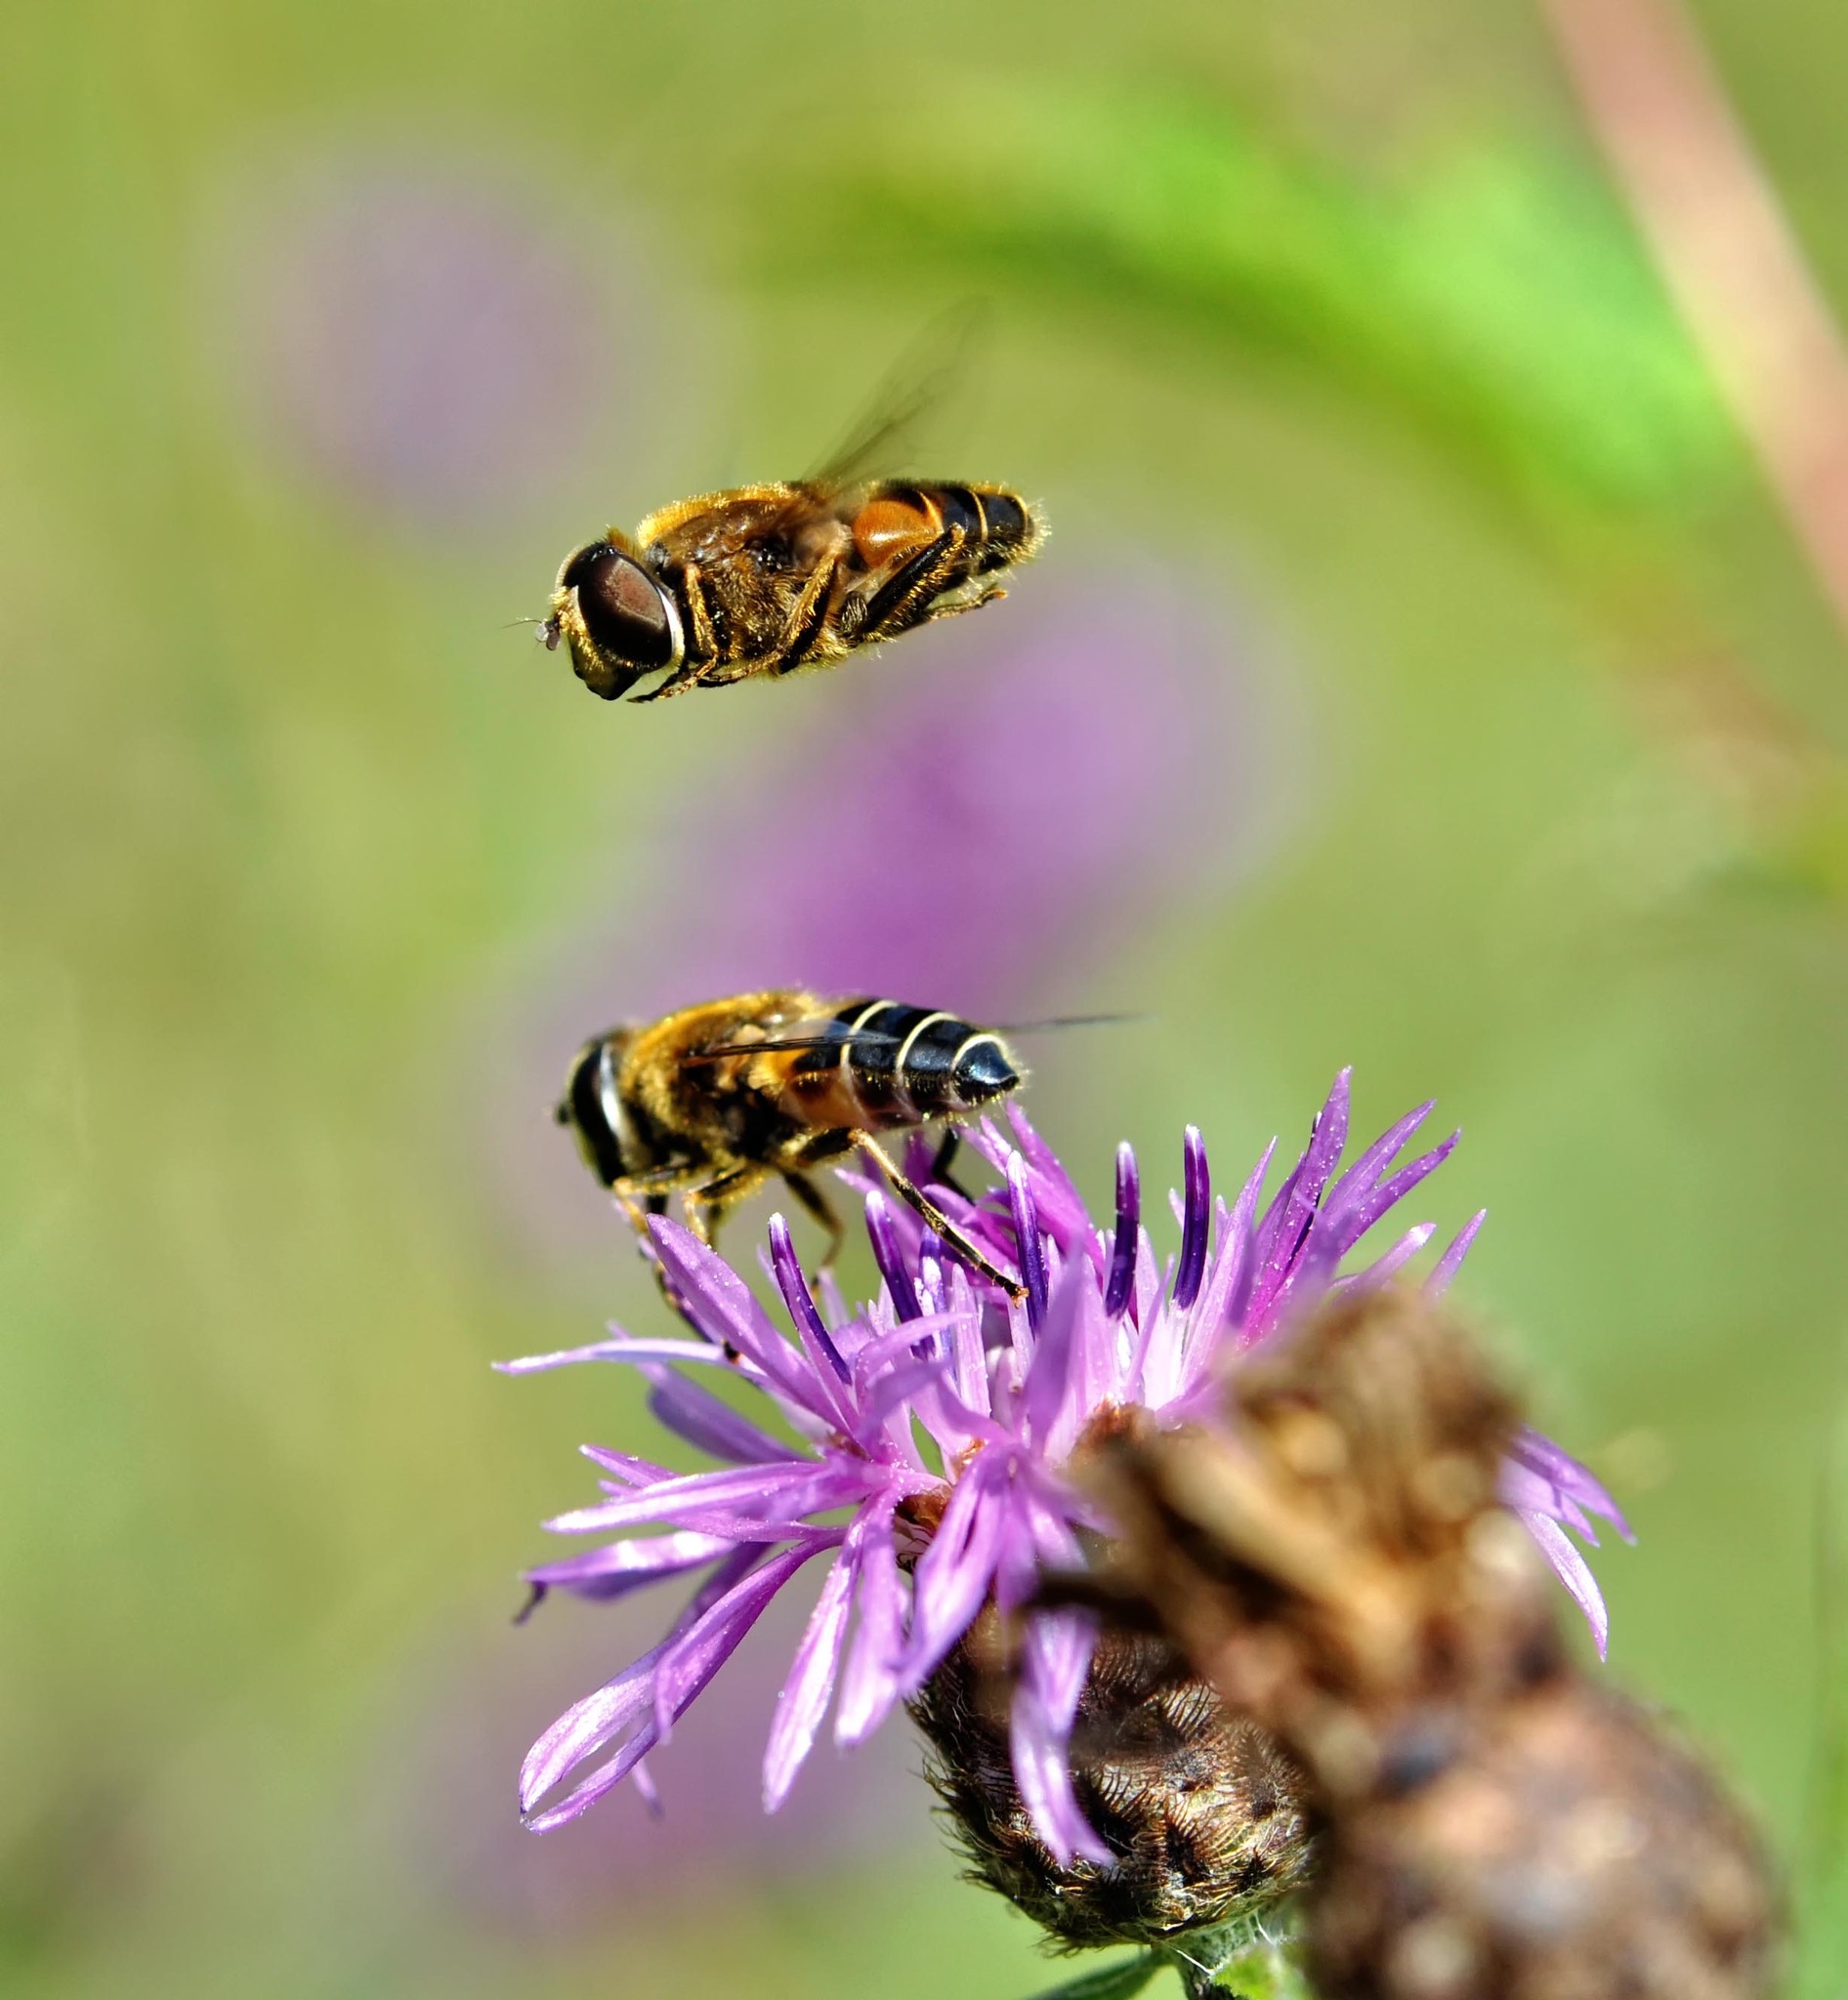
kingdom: Animalia
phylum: Arthropoda
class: Insecta
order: Diptera
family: Syrphidae
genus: Eristalis
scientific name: Eristalis nemorum
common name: Orange-spined drone fly
